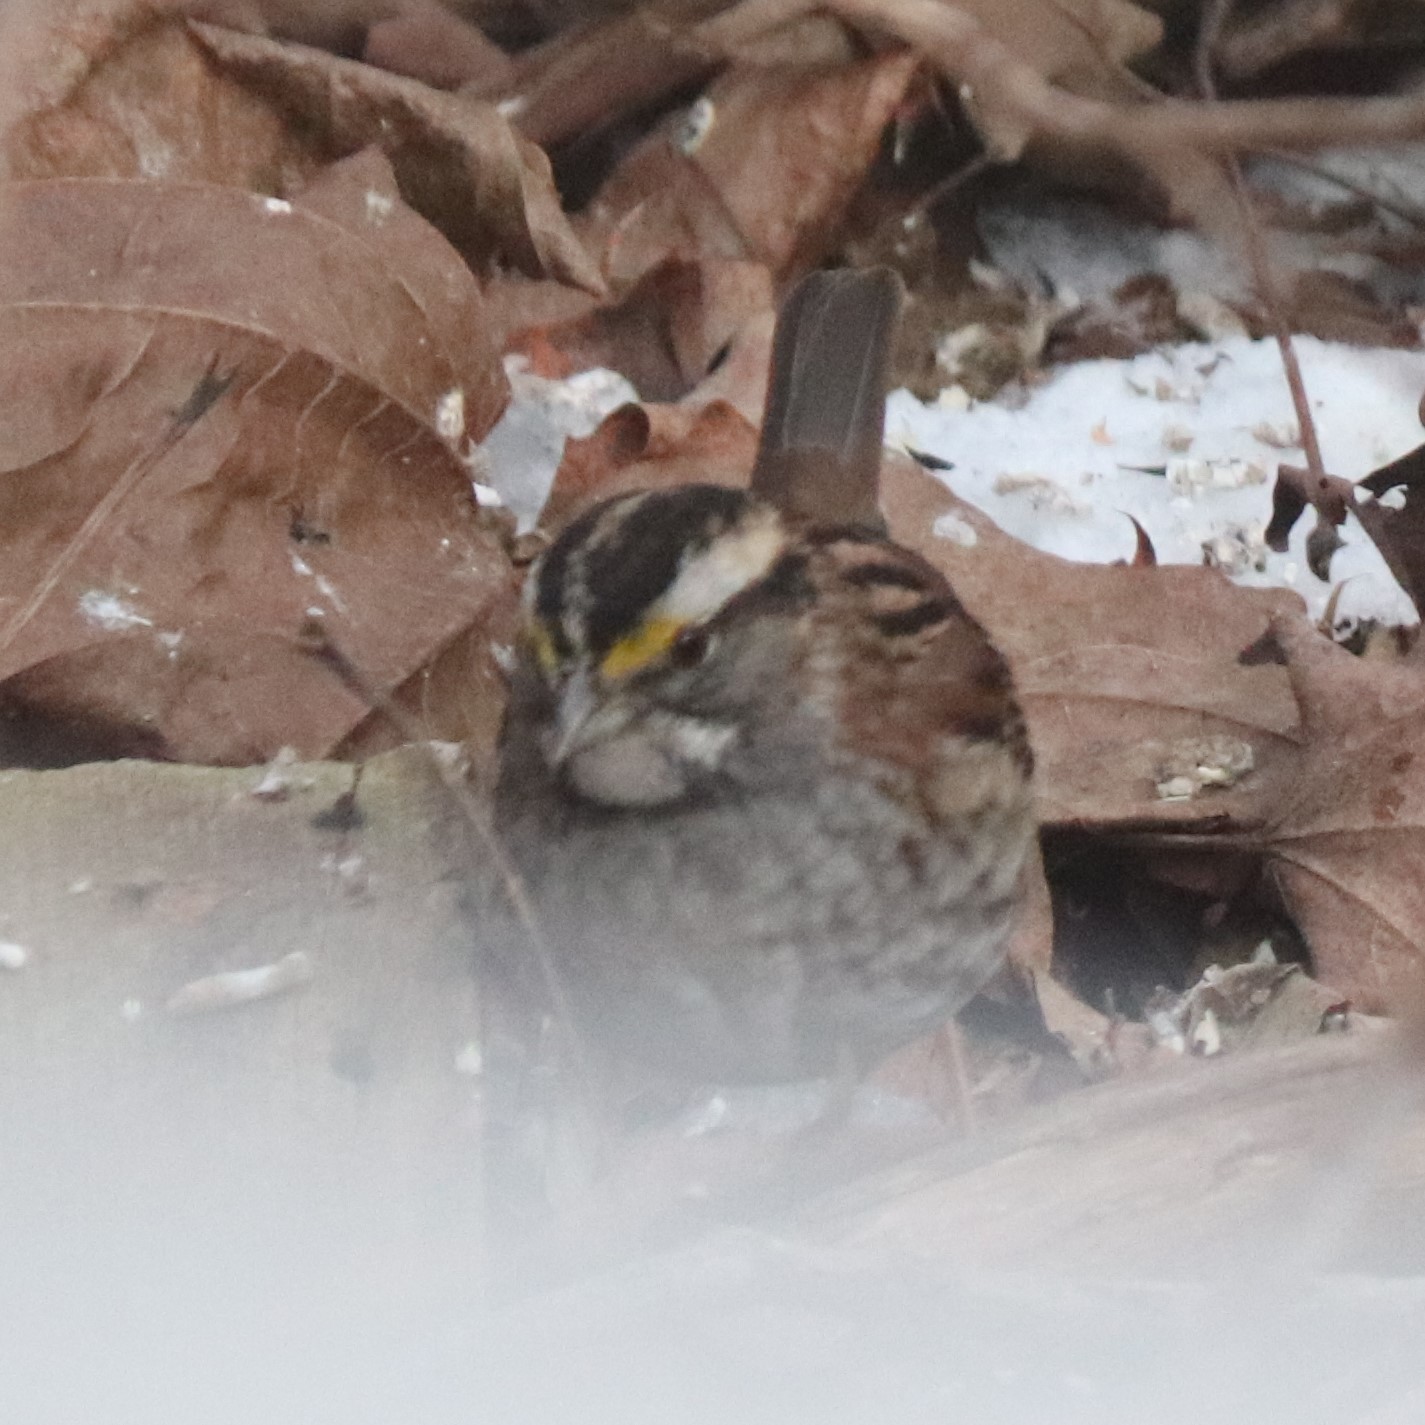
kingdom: Animalia
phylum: Chordata
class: Aves
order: Passeriformes
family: Passerellidae
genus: Zonotrichia
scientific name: Zonotrichia albicollis
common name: White-throated sparrow
